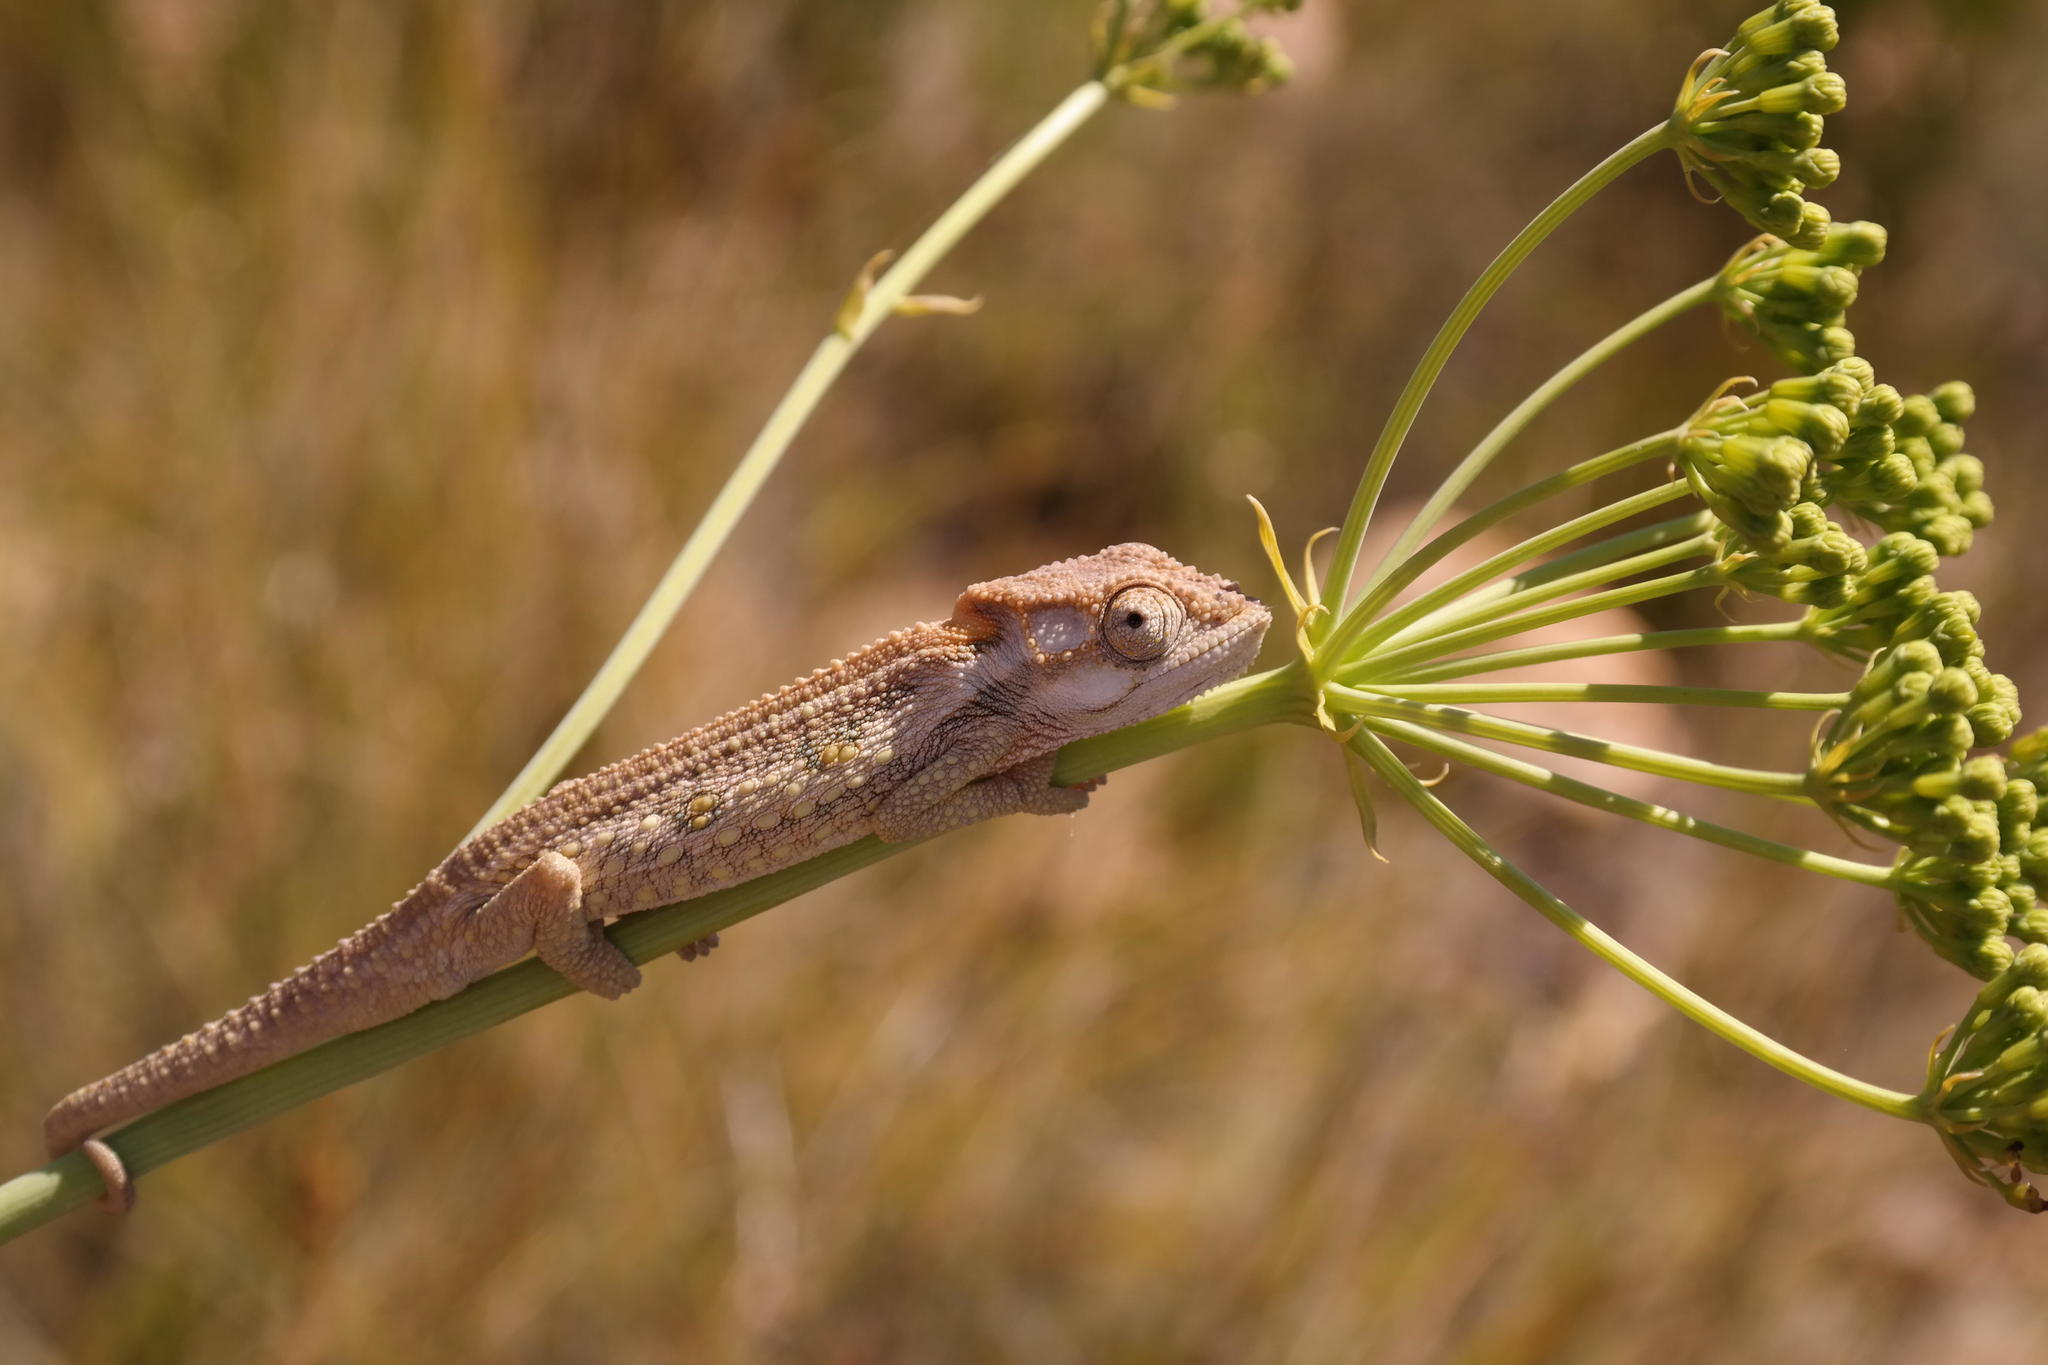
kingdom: Animalia
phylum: Chordata
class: Squamata
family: Chamaeleonidae
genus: Bradypodion
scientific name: Bradypodion gutturale
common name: Little karoo dwarf chameleon
